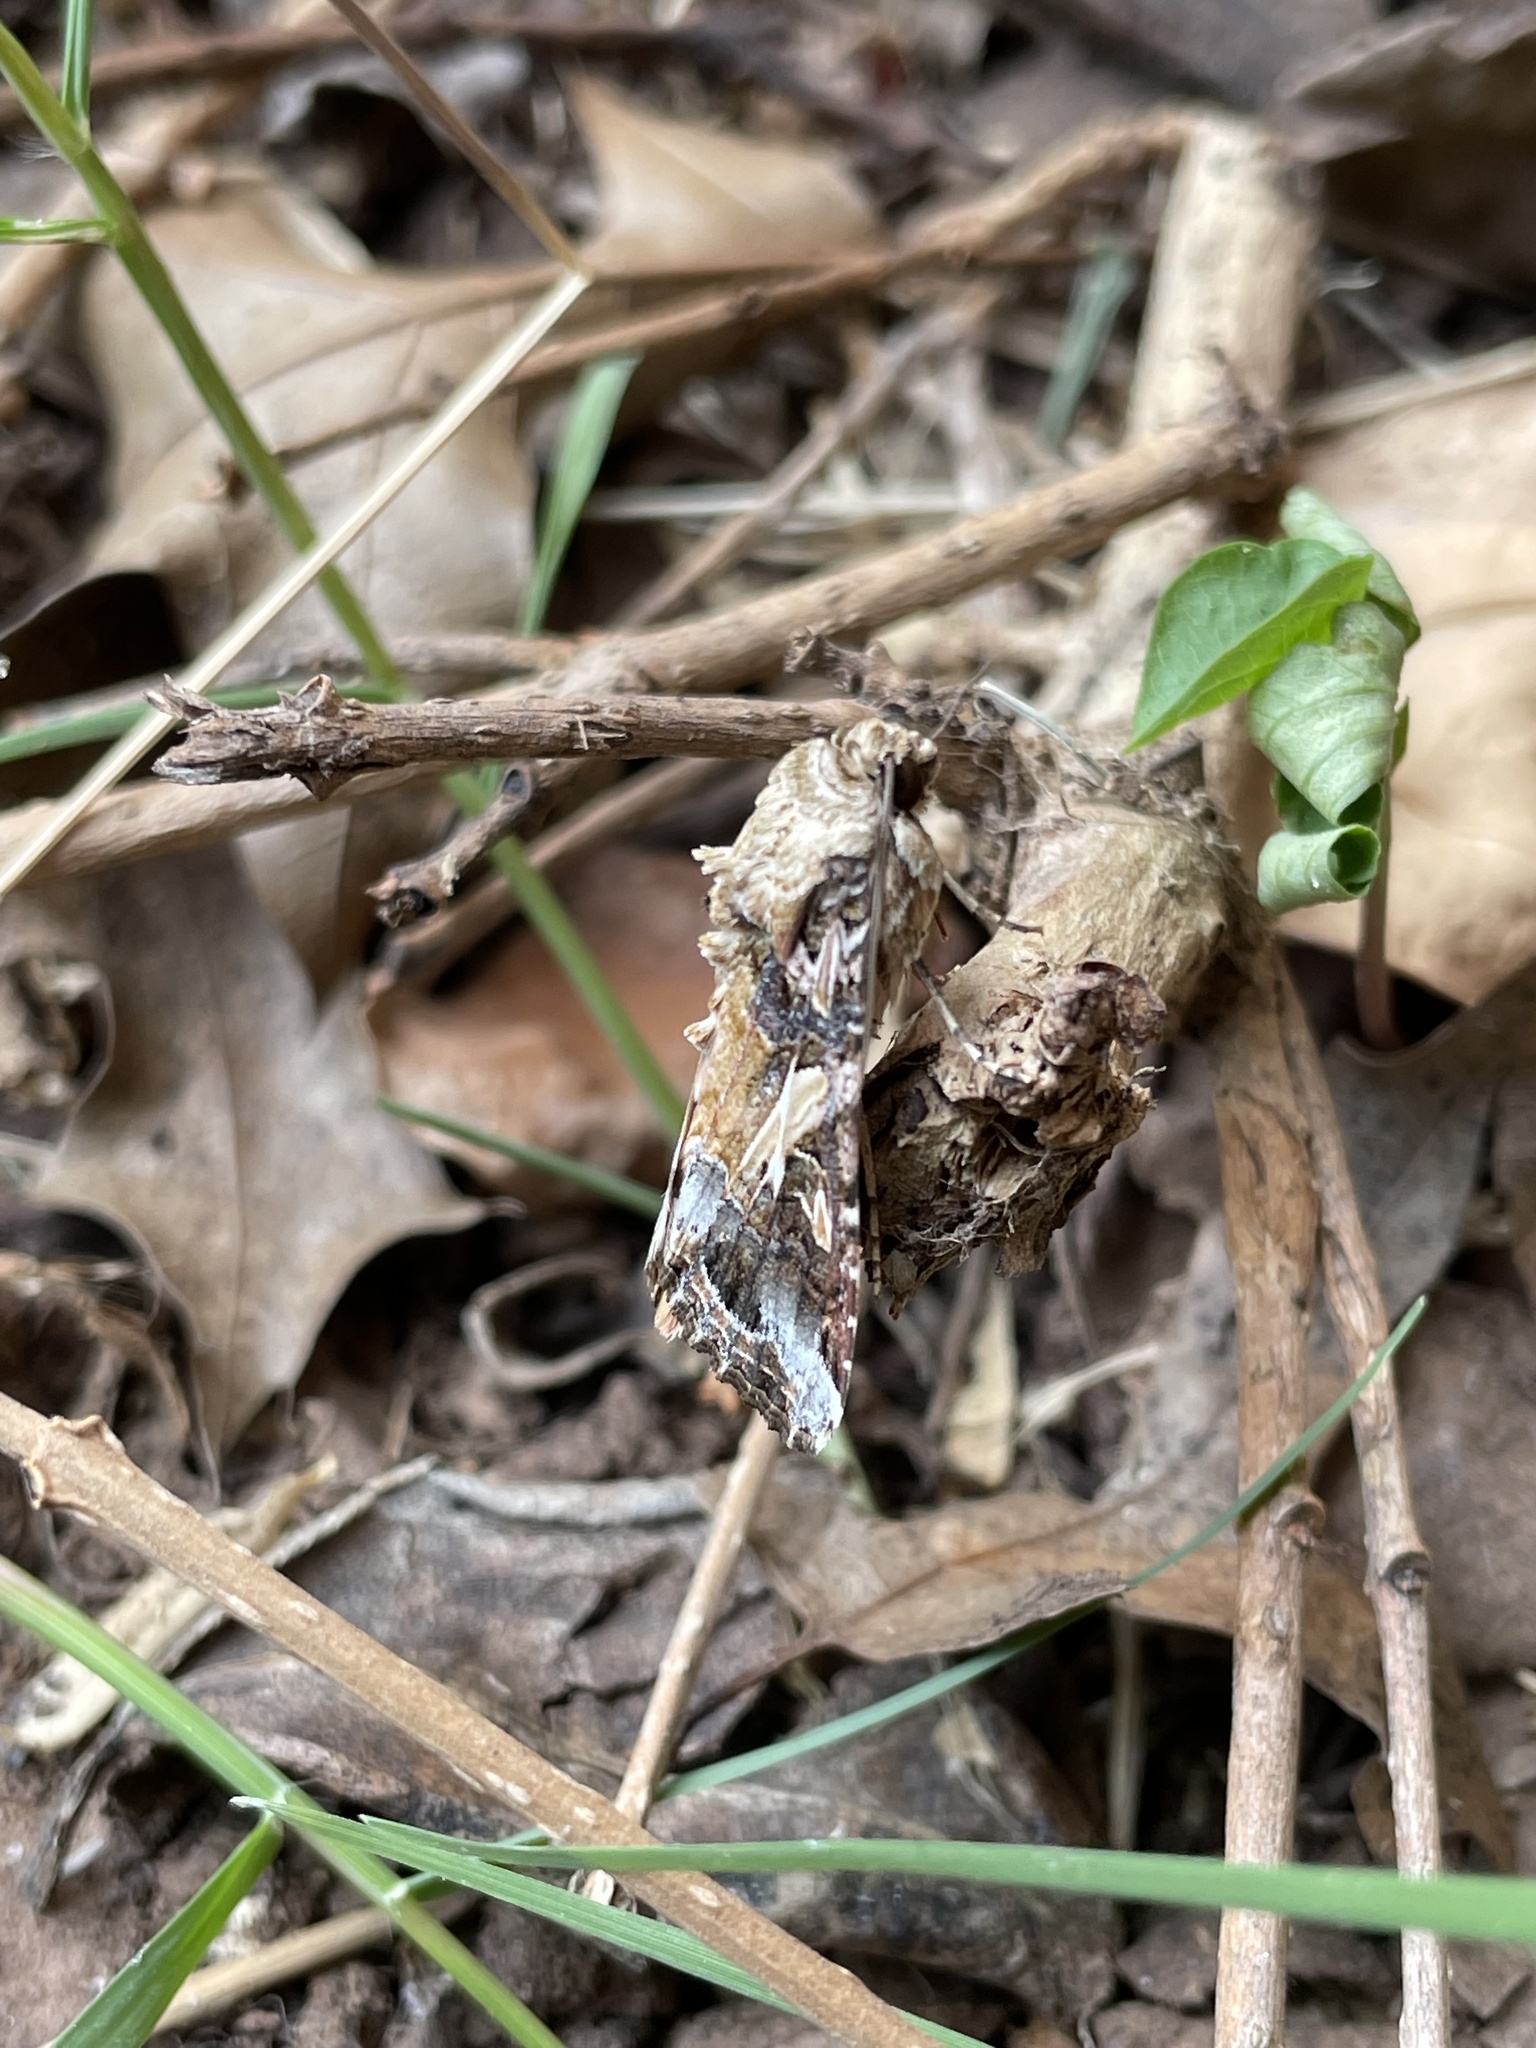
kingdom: Animalia
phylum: Arthropoda
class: Insecta
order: Lepidoptera
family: Noctuidae
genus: Spodoptera
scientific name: Spodoptera latifascia
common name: Velvet armyworm moth
